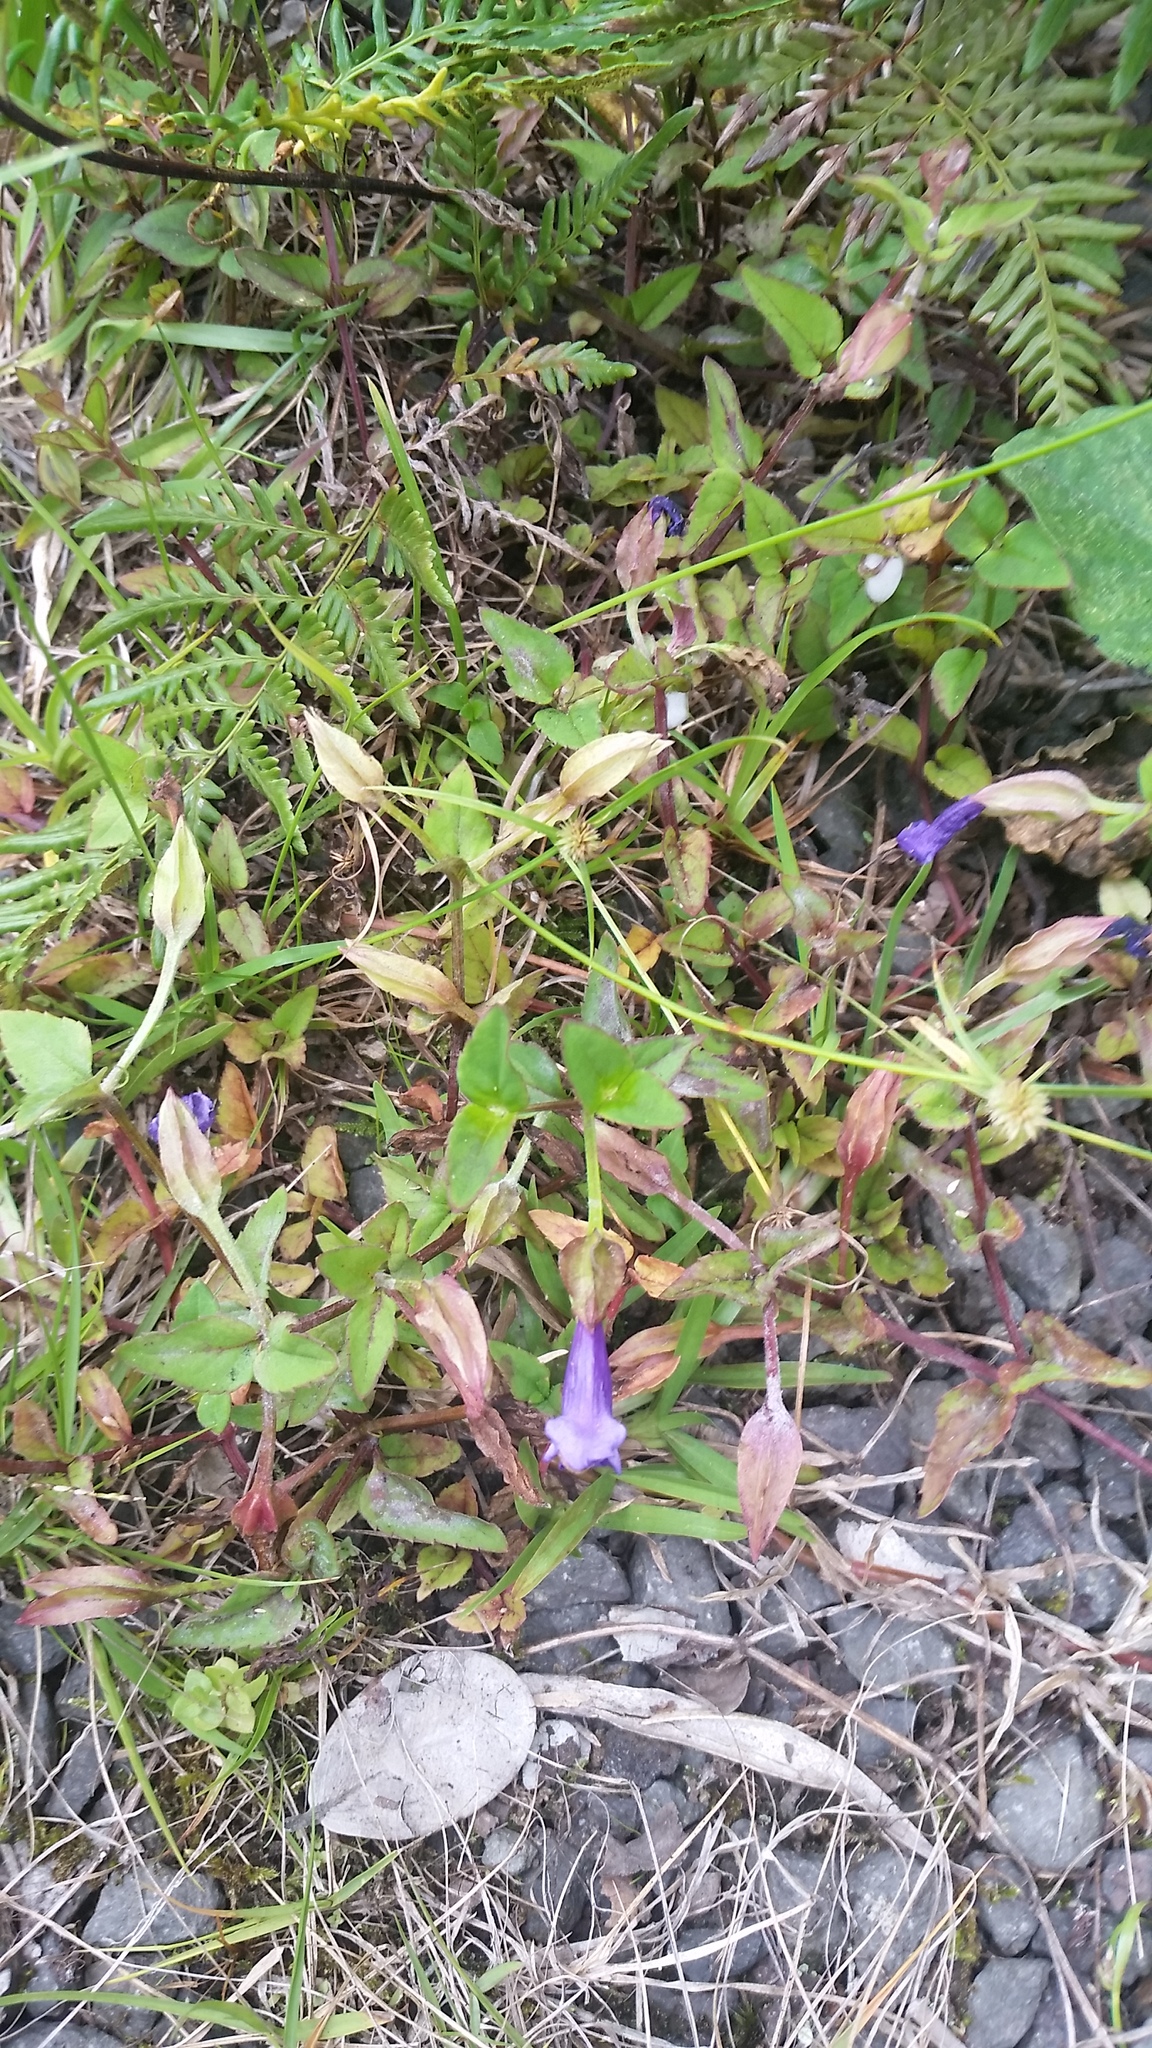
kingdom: Plantae
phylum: Tracheophyta
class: Magnoliopsida
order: Lamiales
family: Linderniaceae
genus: Torenia
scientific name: Torenia asiatica
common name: Wishbone flower
